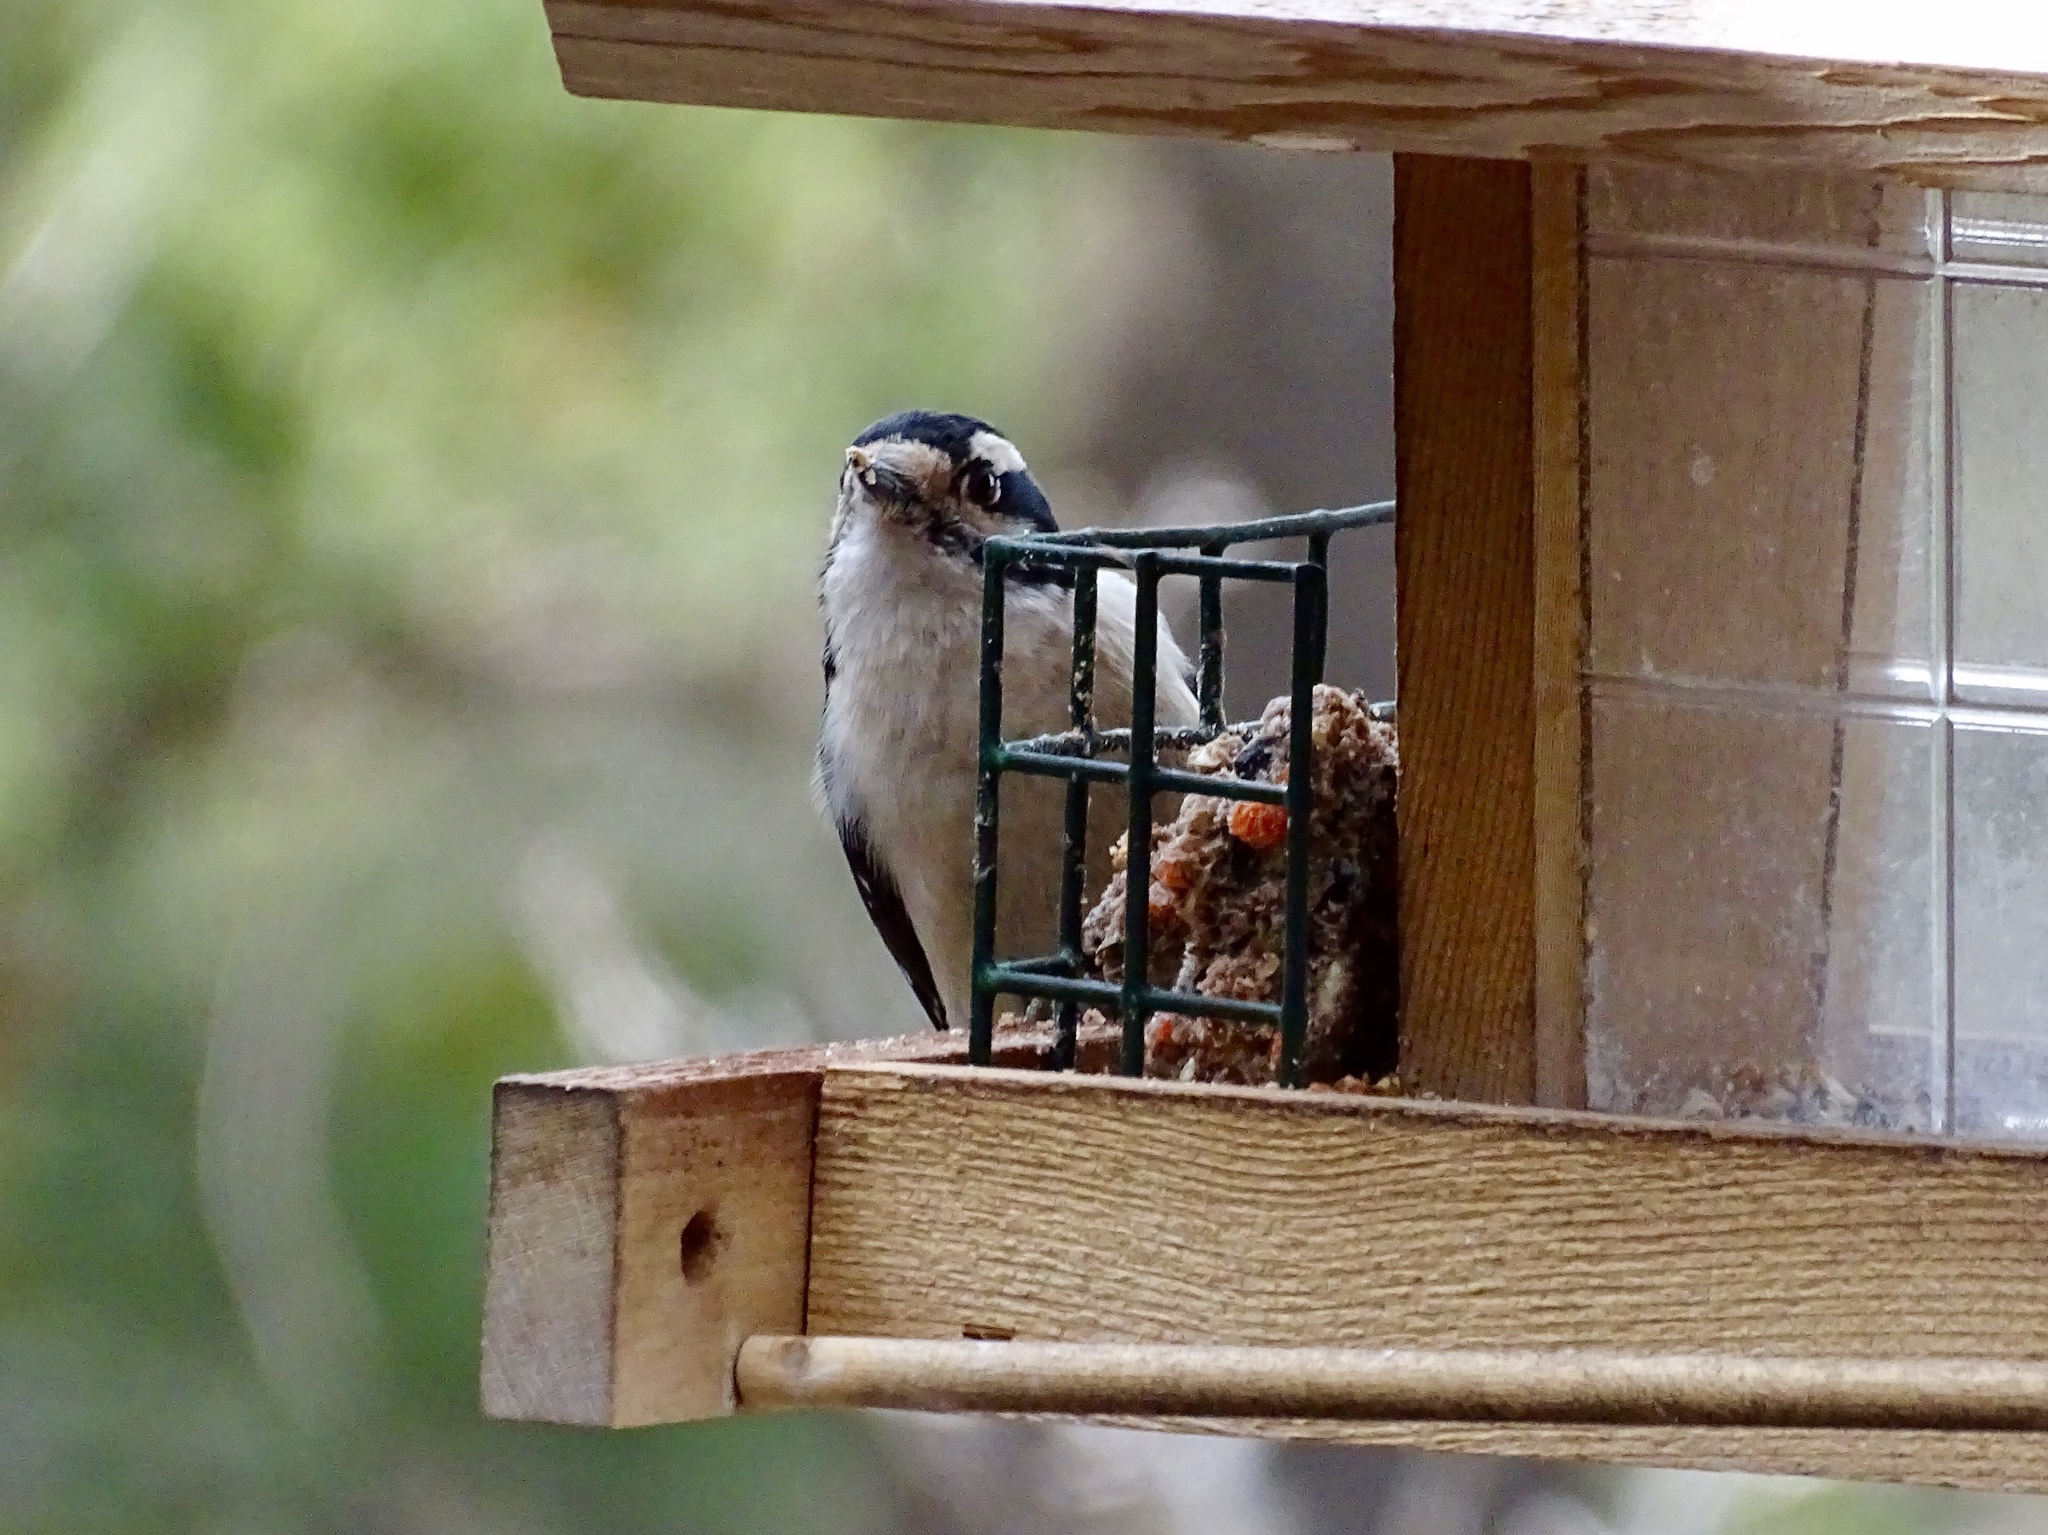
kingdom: Animalia
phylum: Chordata
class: Aves
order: Piciformes
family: Picidae
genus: Dryobates
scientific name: Dryobates pubescens
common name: Downy woodpecker
